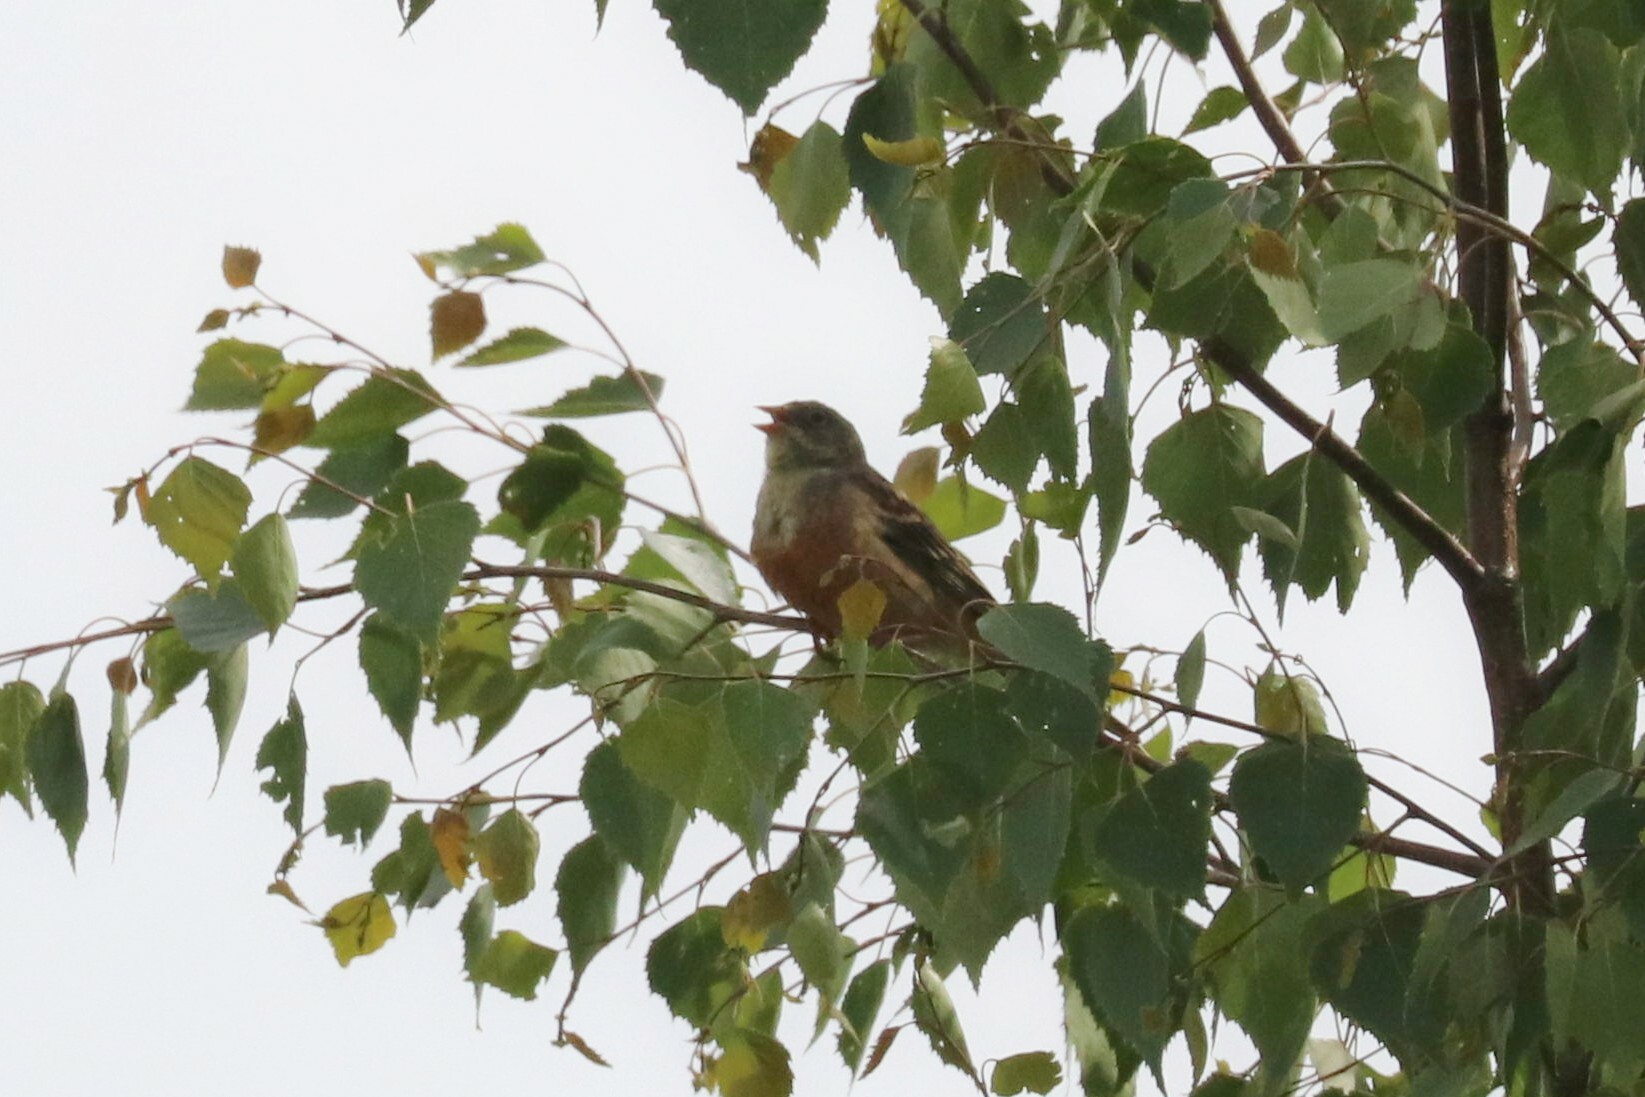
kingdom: Animalia
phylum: Chordata
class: Aves
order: Passeriformes
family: Emberizidae
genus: Emberiza
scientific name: Emberiza hortulana
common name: Ortolan bunting
